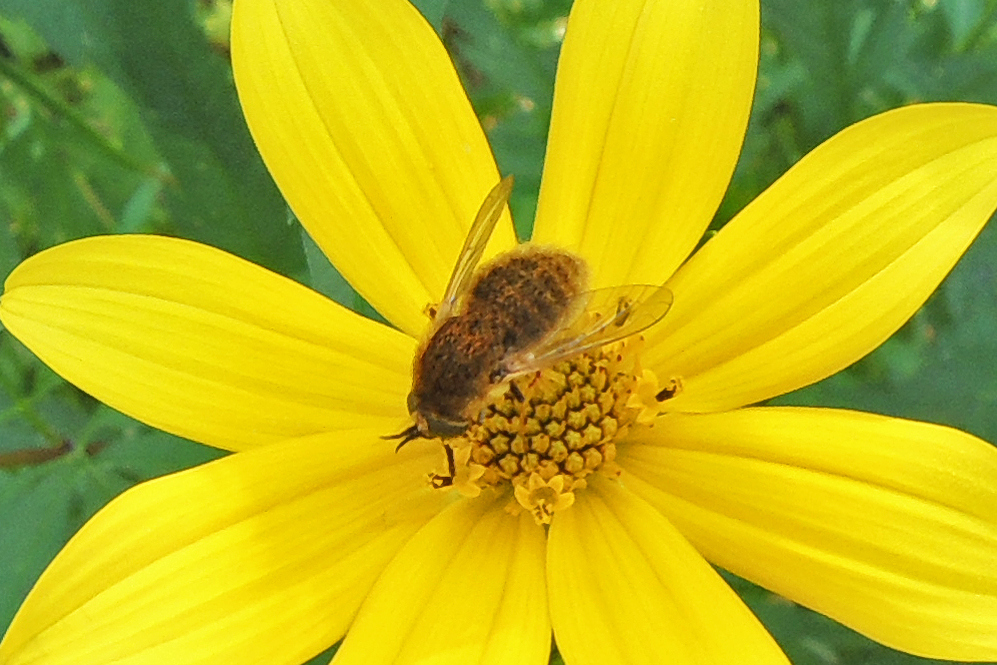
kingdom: Animalia
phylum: Arthropoda
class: Insecta
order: Diptera
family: Bombyliidae
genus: Sparnopolius
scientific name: Sparnopolius confusus
